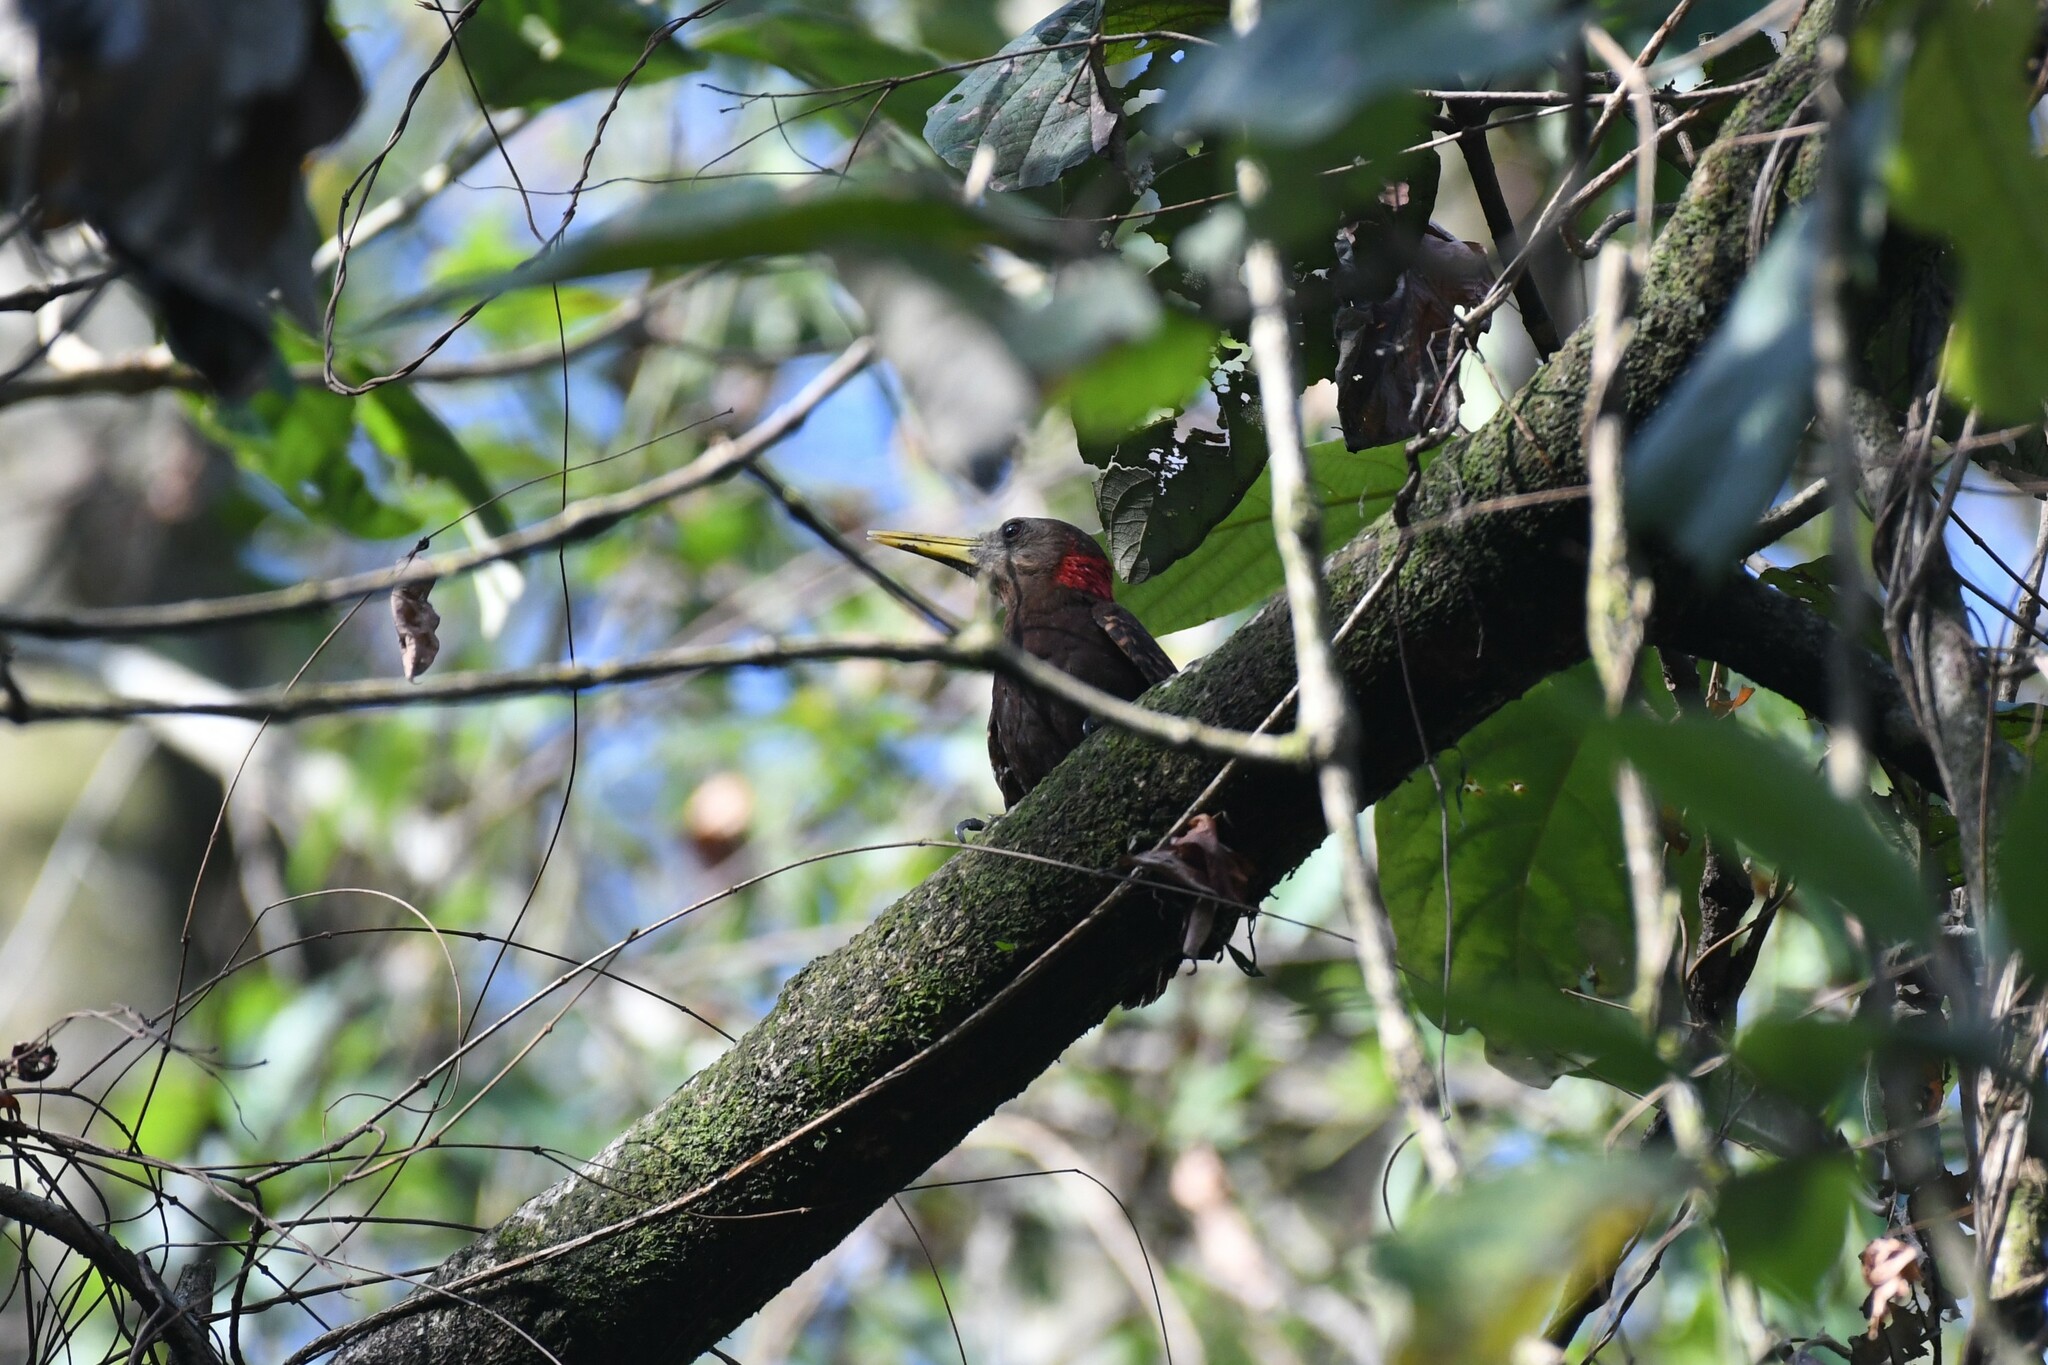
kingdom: Animalia
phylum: Chordata
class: Aves
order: Piciformes
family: Picidae
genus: Blythipicus
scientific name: Blythipicus pyrrhotis
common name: Bay woodpecker
